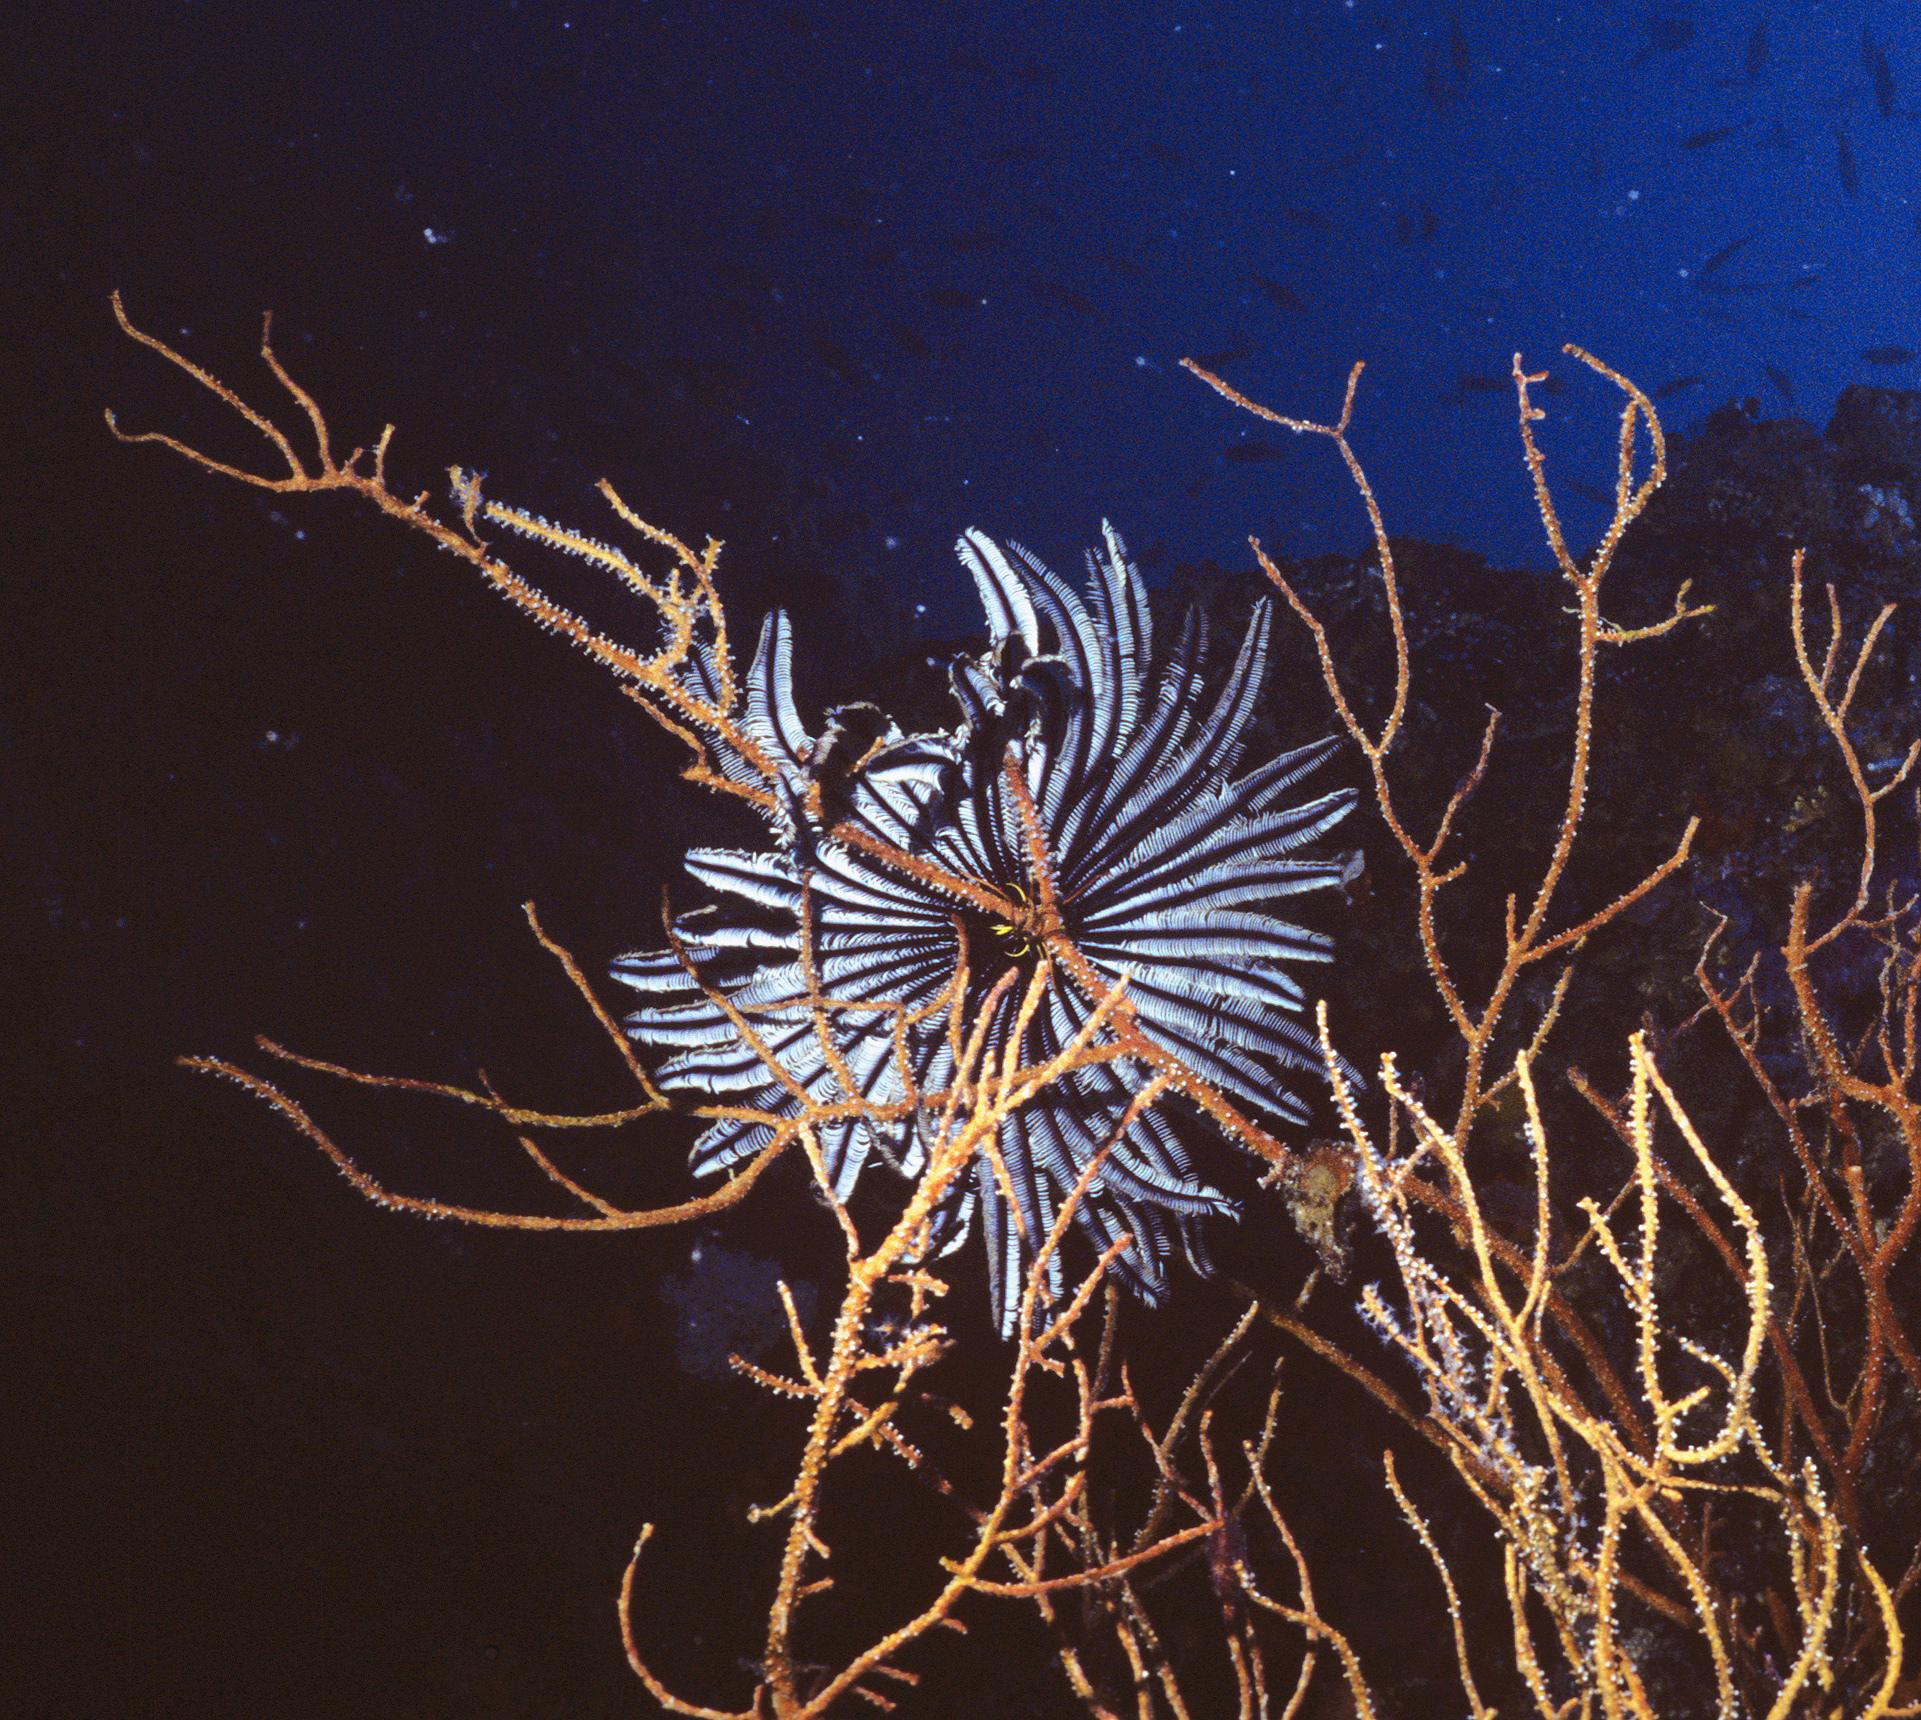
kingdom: Animalia
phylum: Echinodermata
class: Crinoidea
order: Comatulida
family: Colobometridae
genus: Cenometra
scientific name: Cenometra bella
